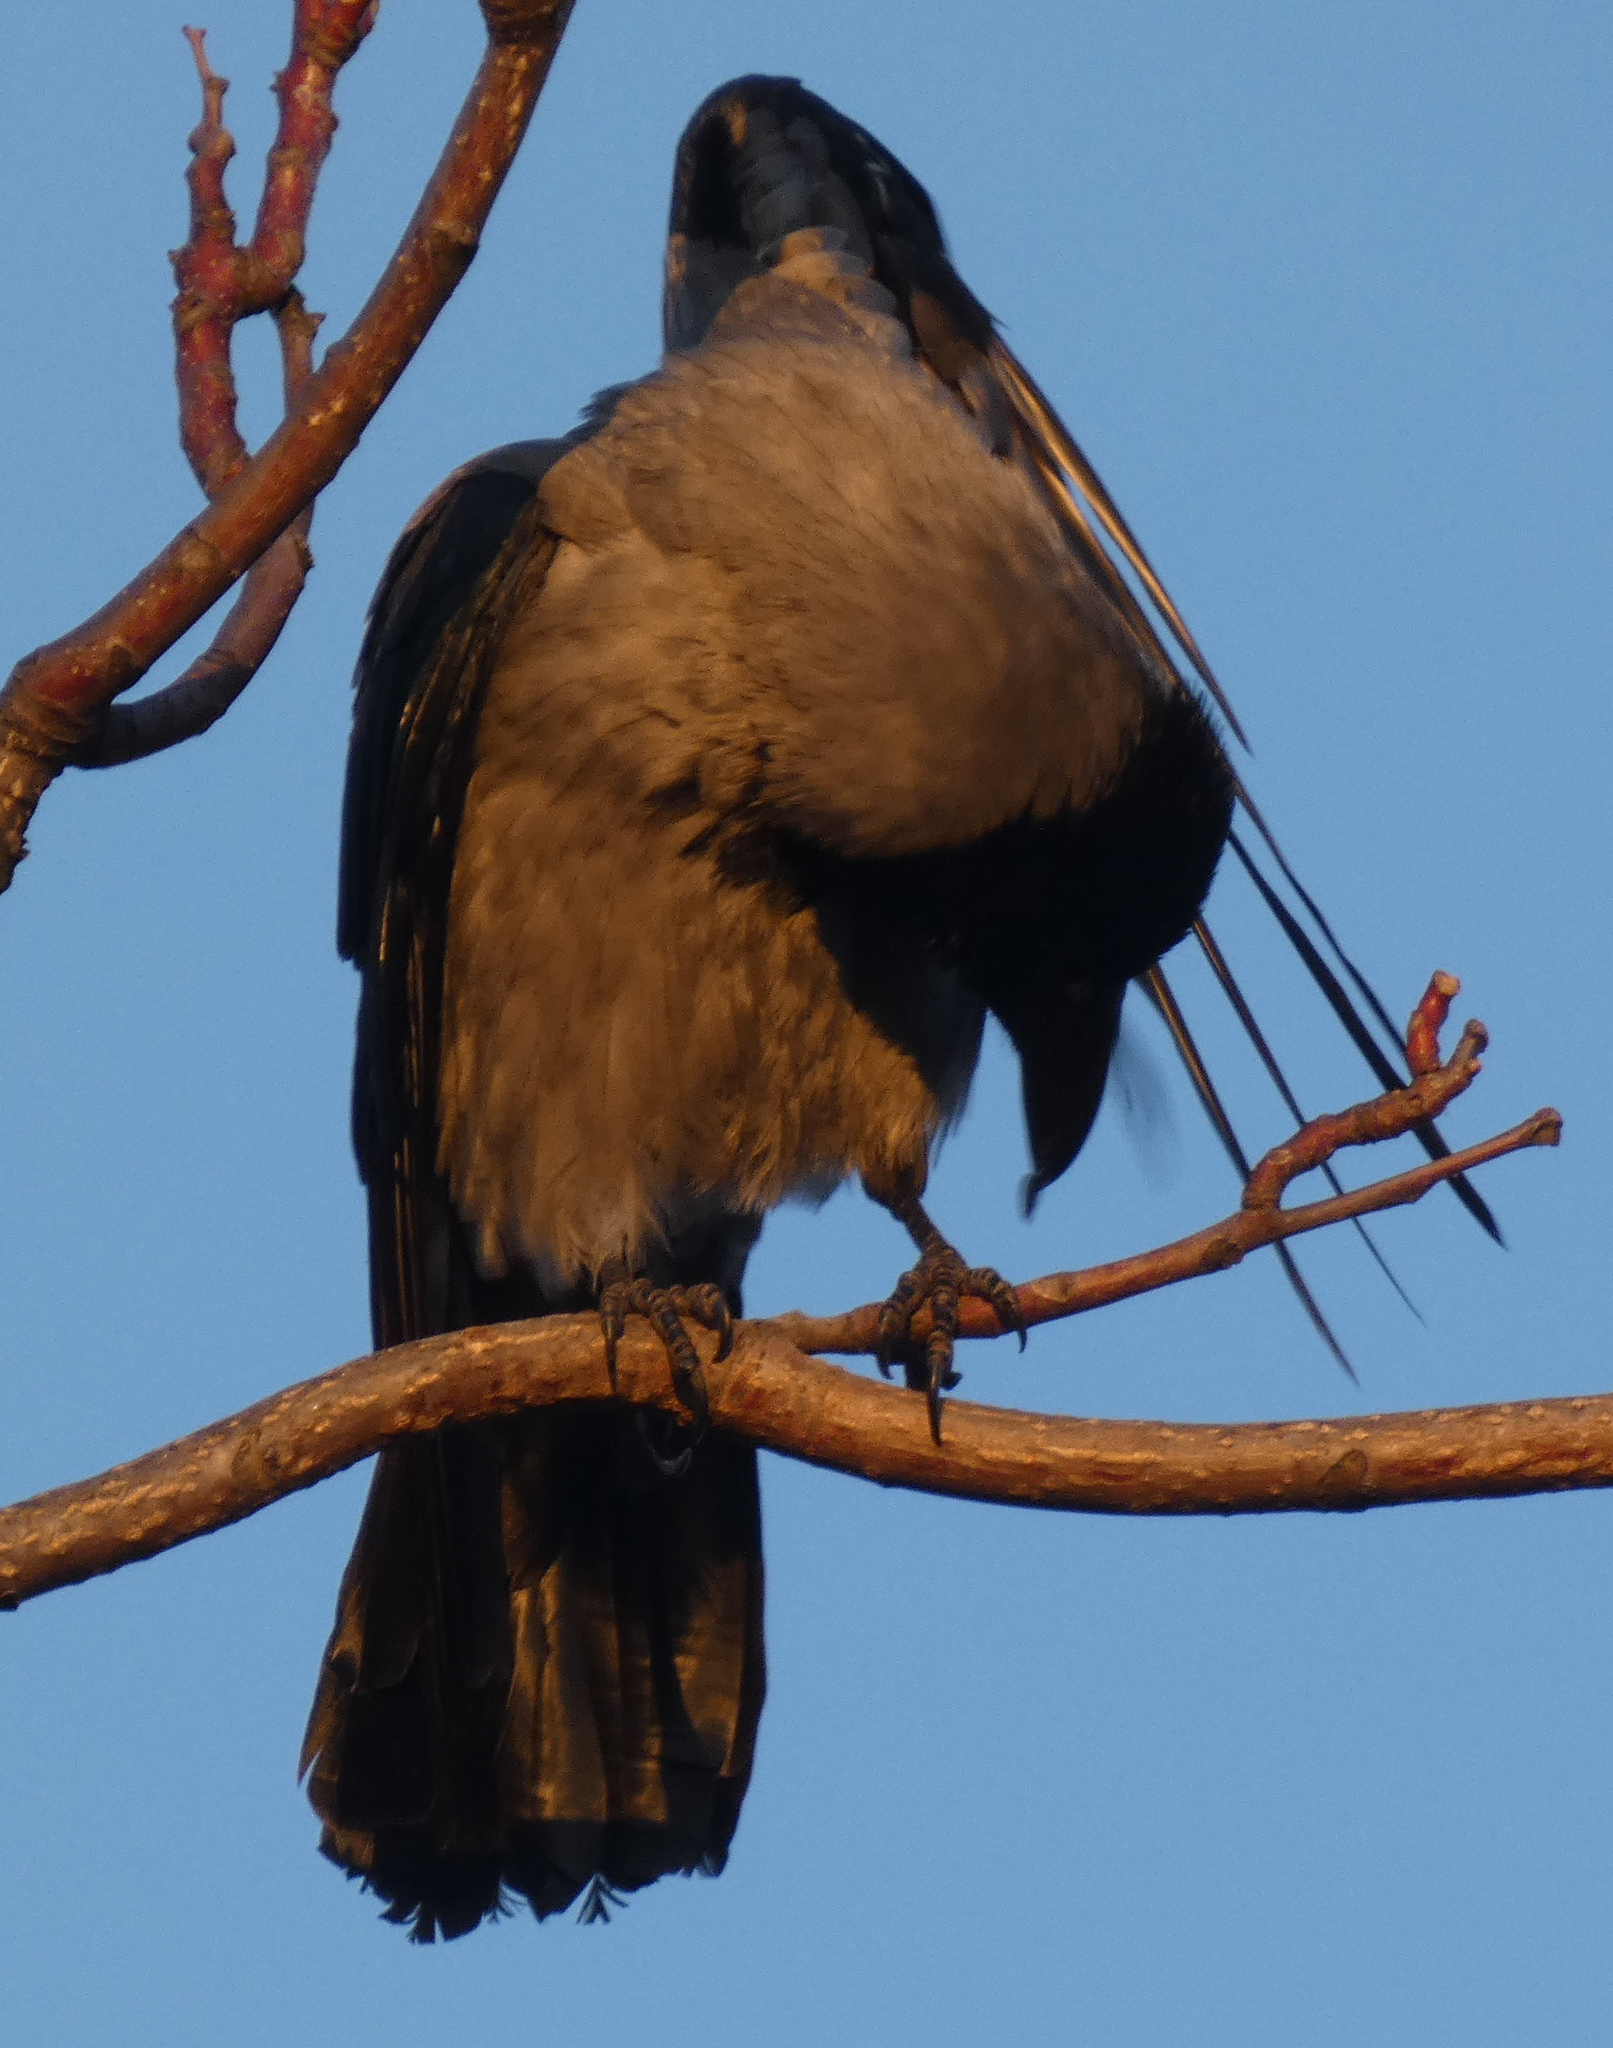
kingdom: Animalia
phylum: Chordata
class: Aves
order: Passeriformes
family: Corvidae
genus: Corvus
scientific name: Corvus cornix
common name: Hooded crow
